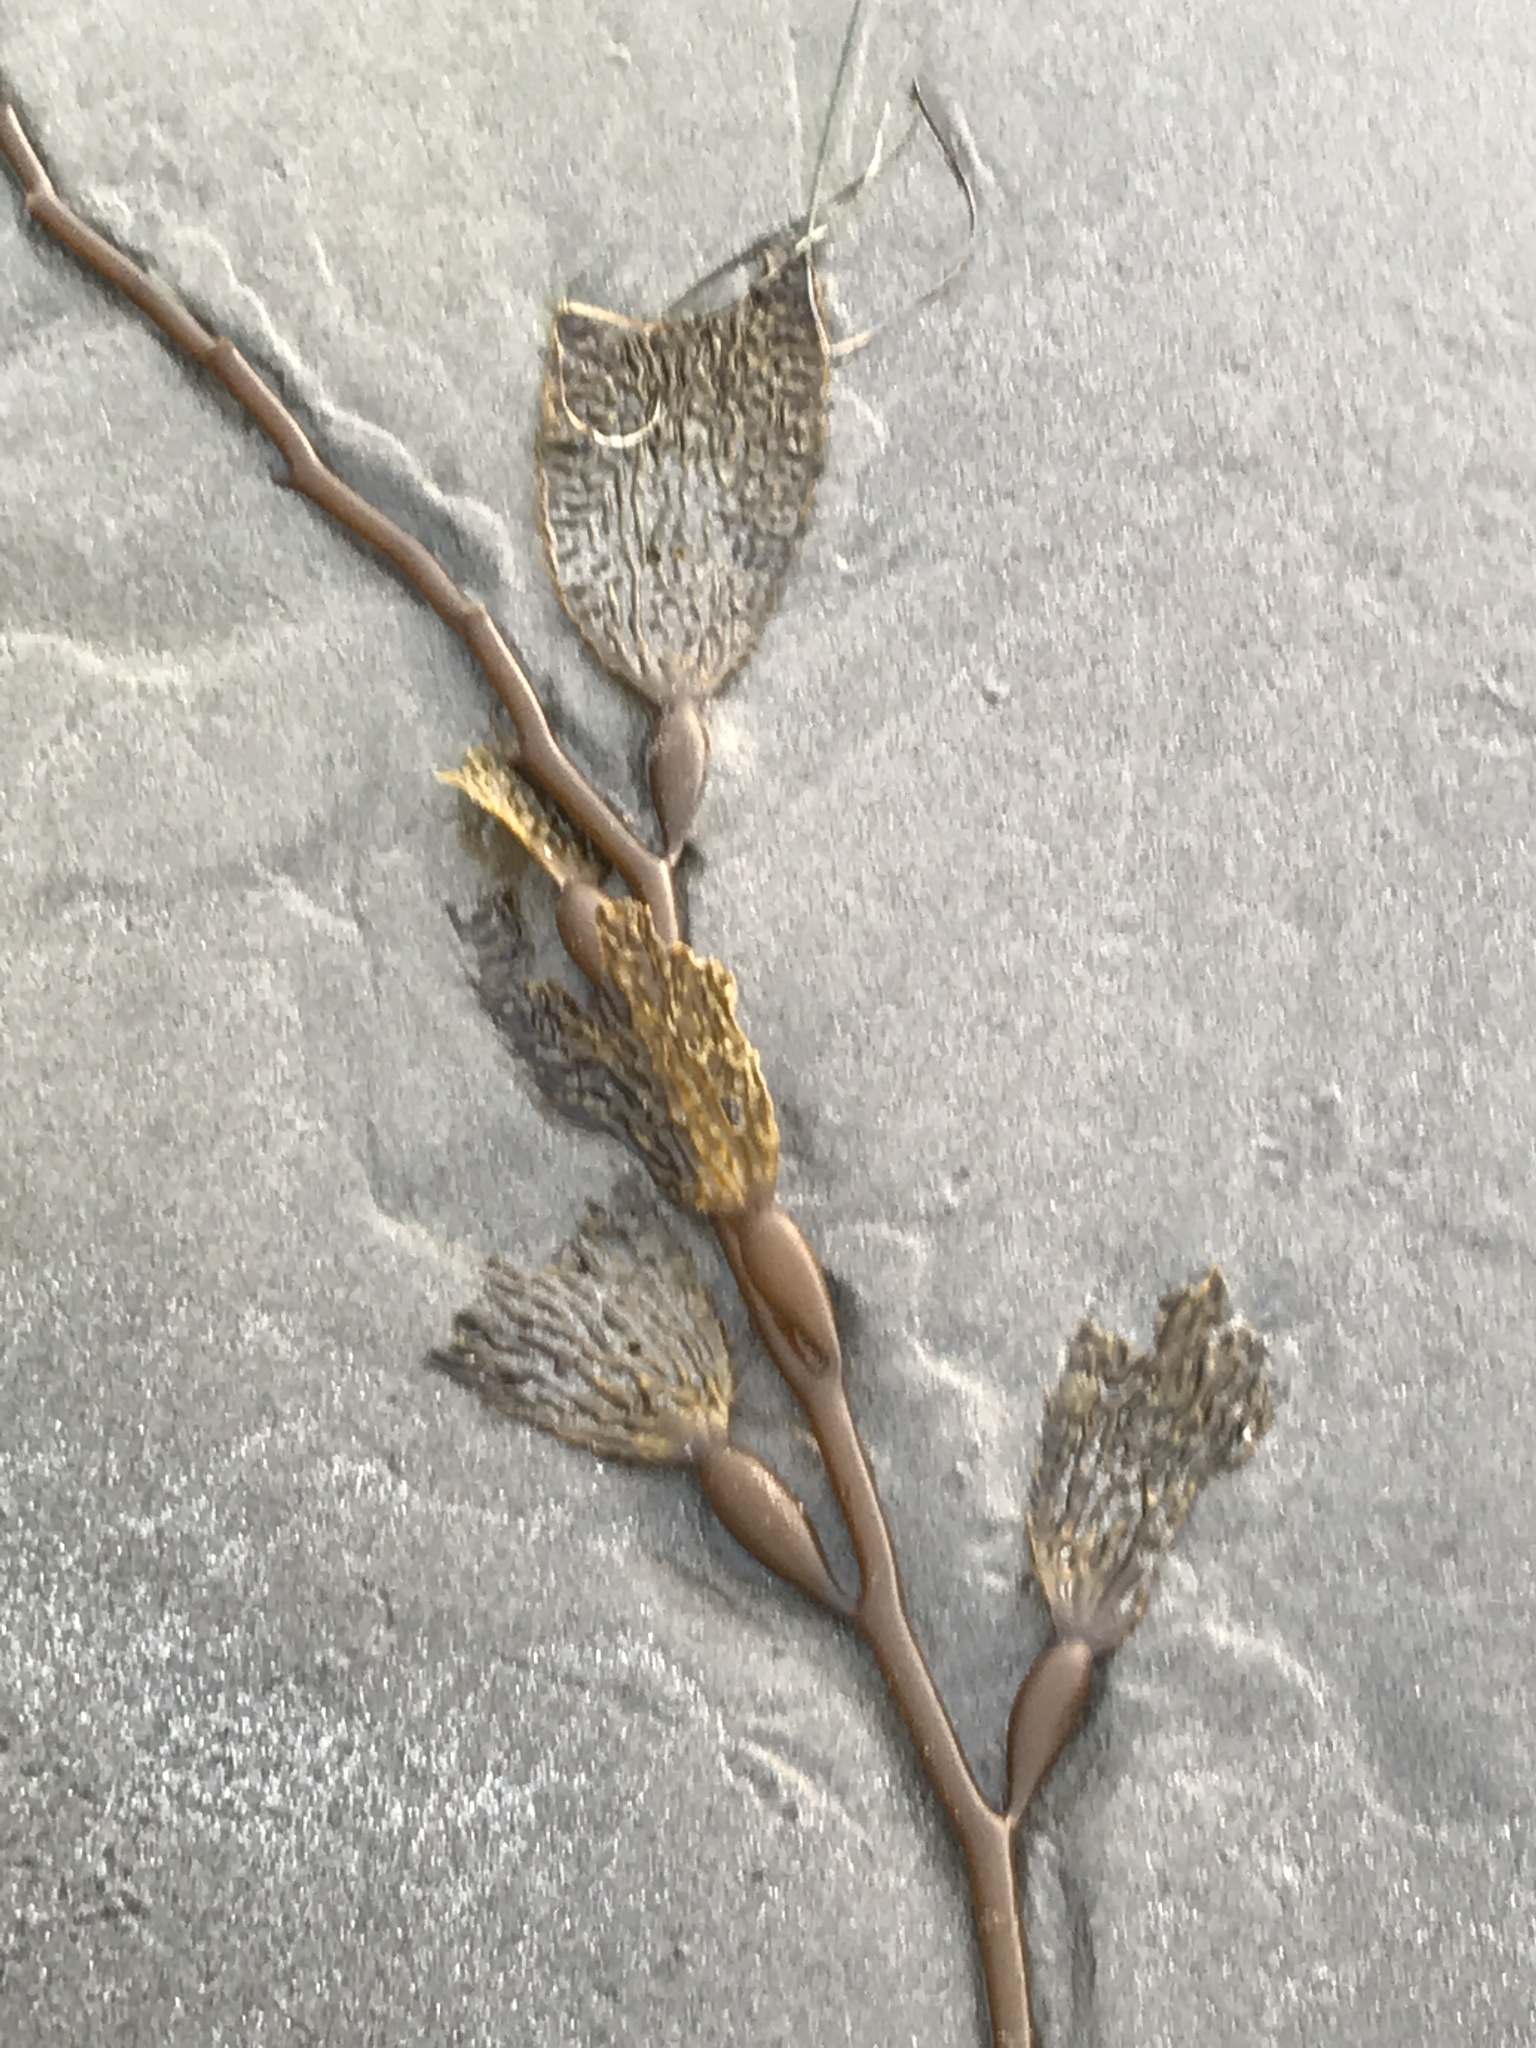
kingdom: Chromista
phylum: Ochrophyta
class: Phaeophyceae
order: Laminariales
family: Laminariaceae
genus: Macrocystis
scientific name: Macrocystis pyrifera
